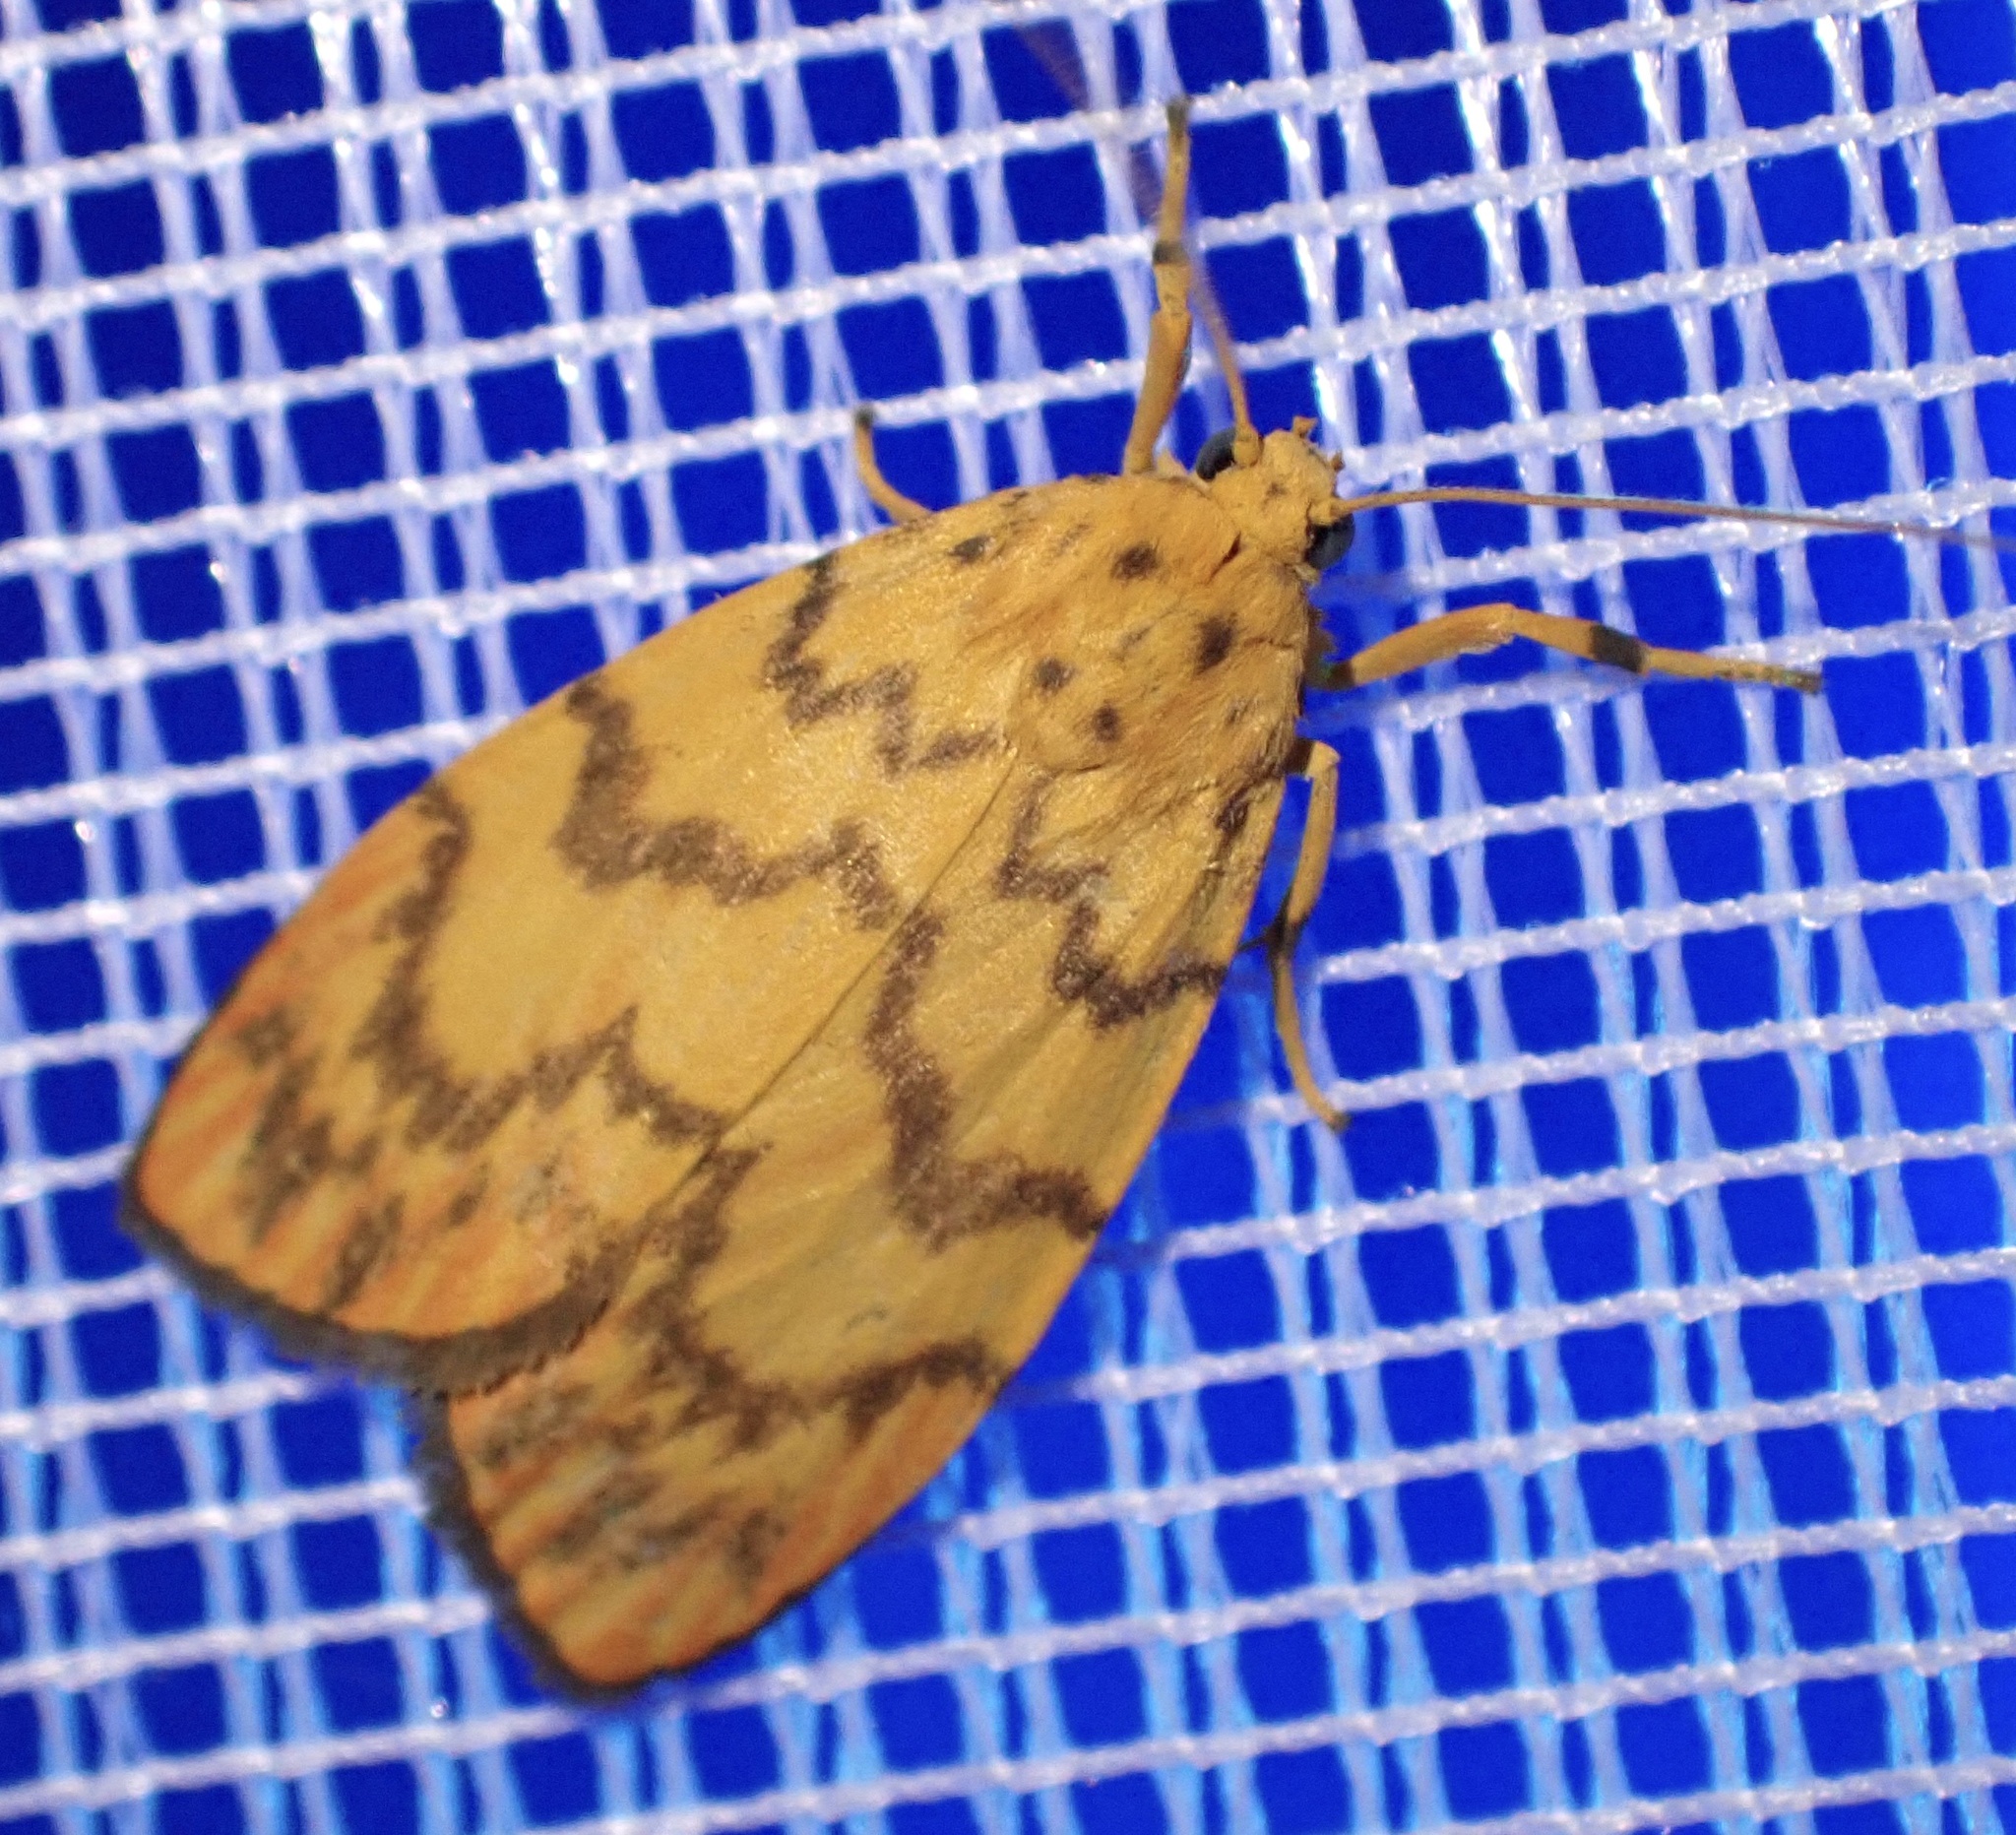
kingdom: Animalia
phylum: Arthropoda
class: Insecta
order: Lepidoptera
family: Erebidae
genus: Cyme
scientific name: Cyme coccineotermen
